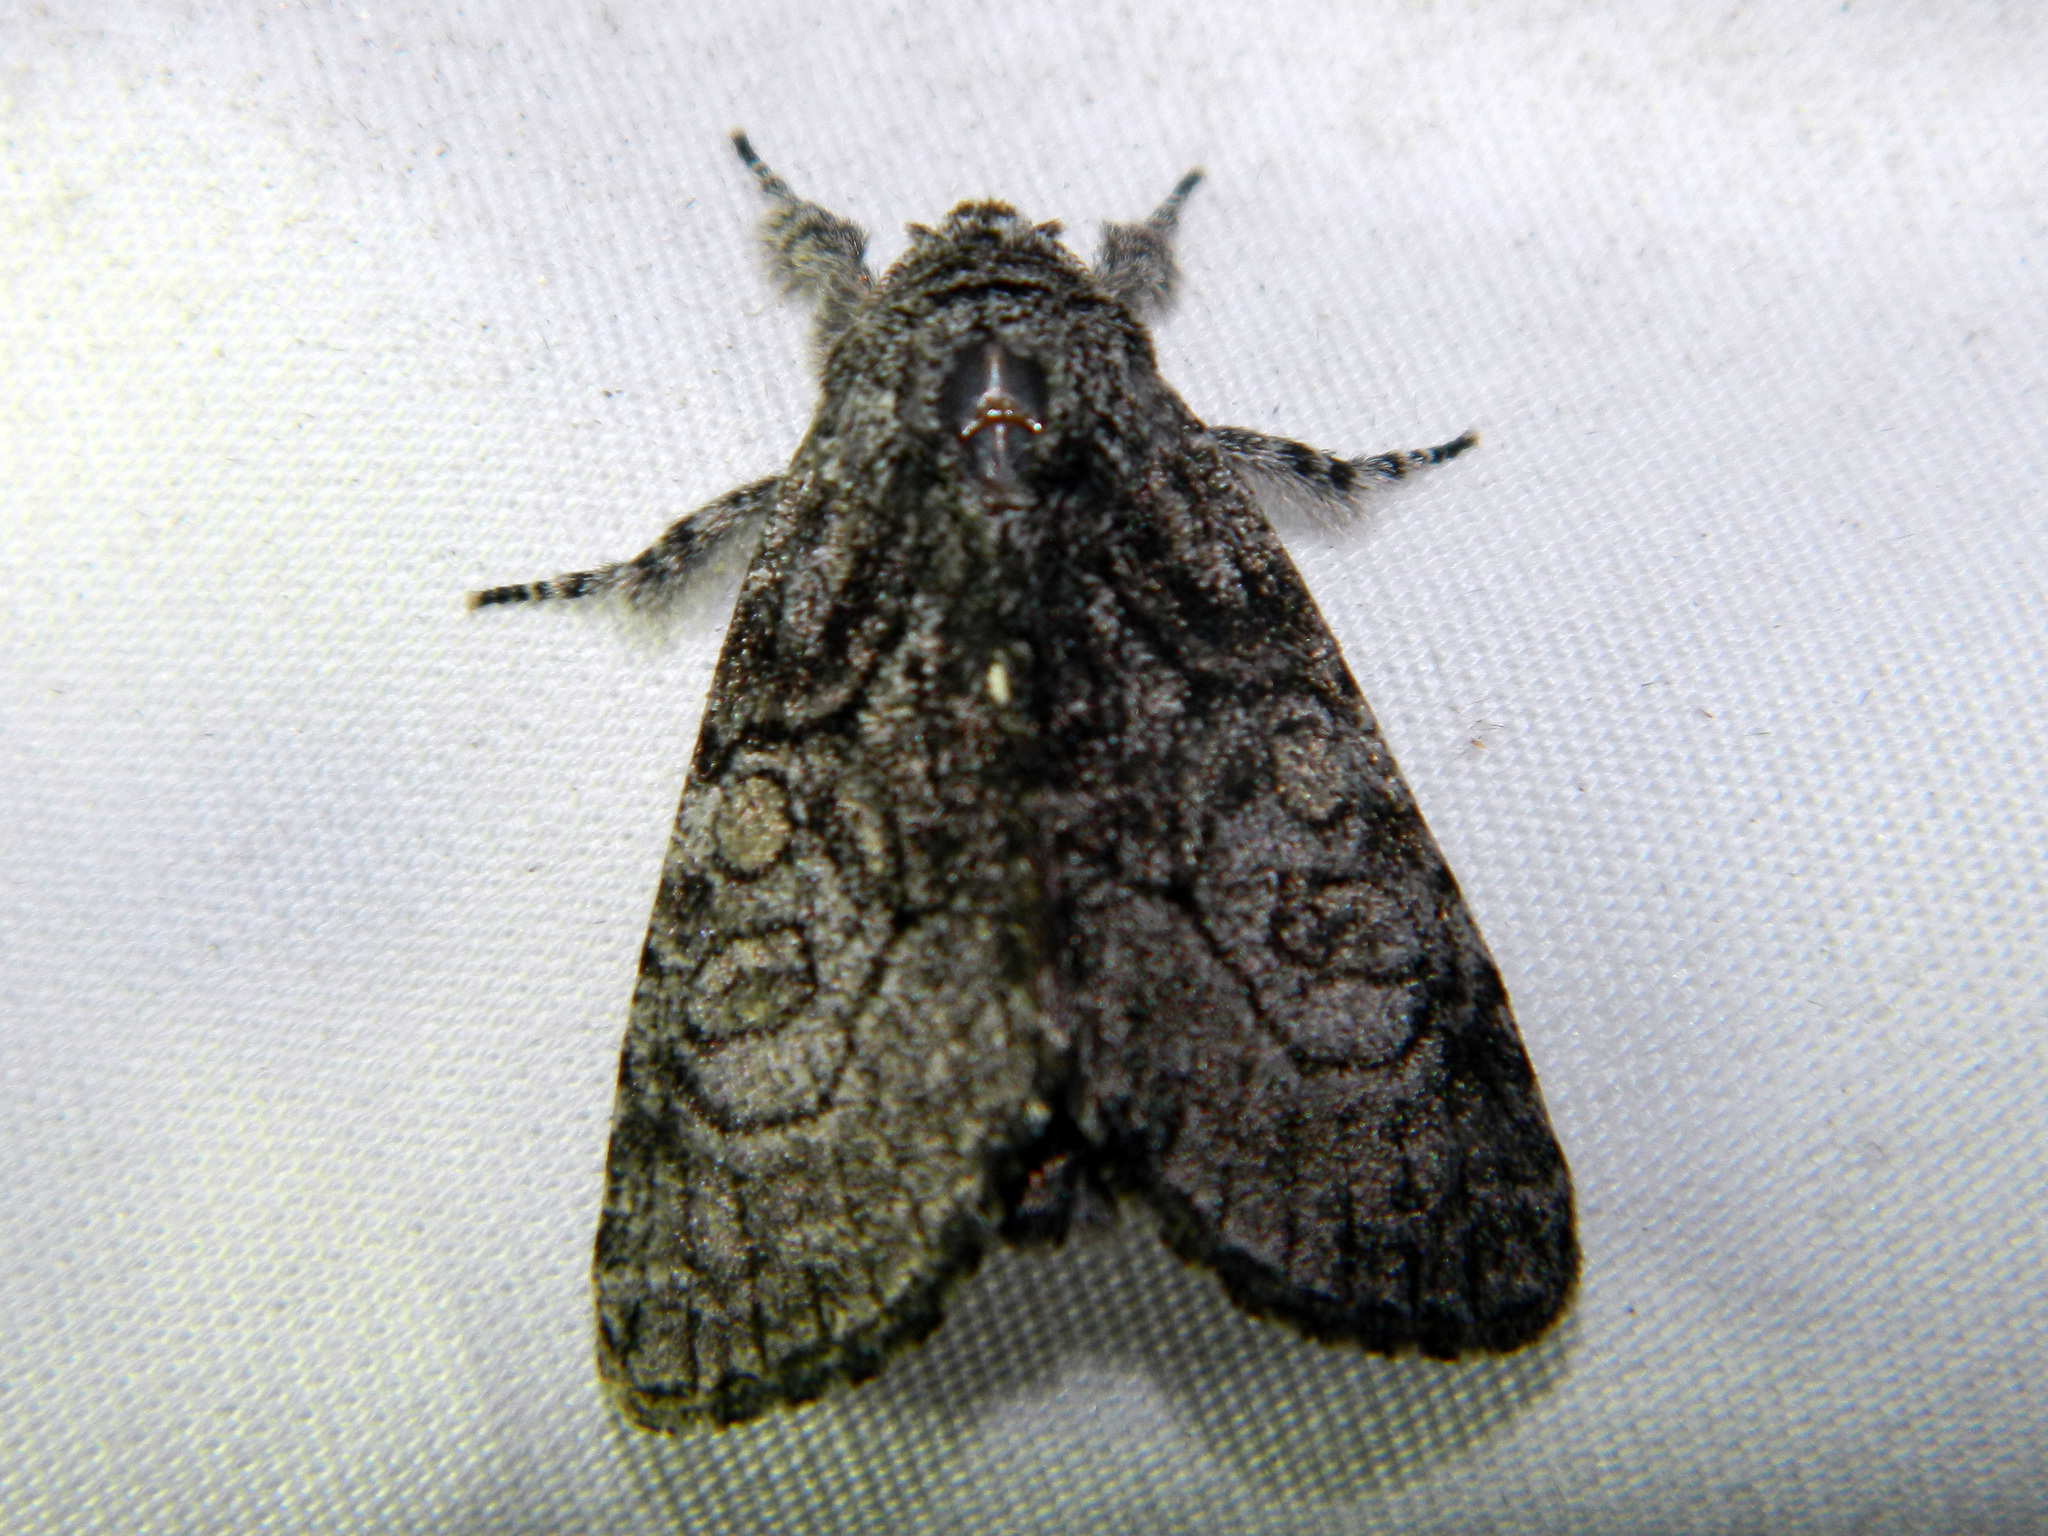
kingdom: Animalia
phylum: Arthropoda
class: Insecta
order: Lepidoptera
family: Noctuidae
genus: Raphia
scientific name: Raphia frater
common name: Brother
